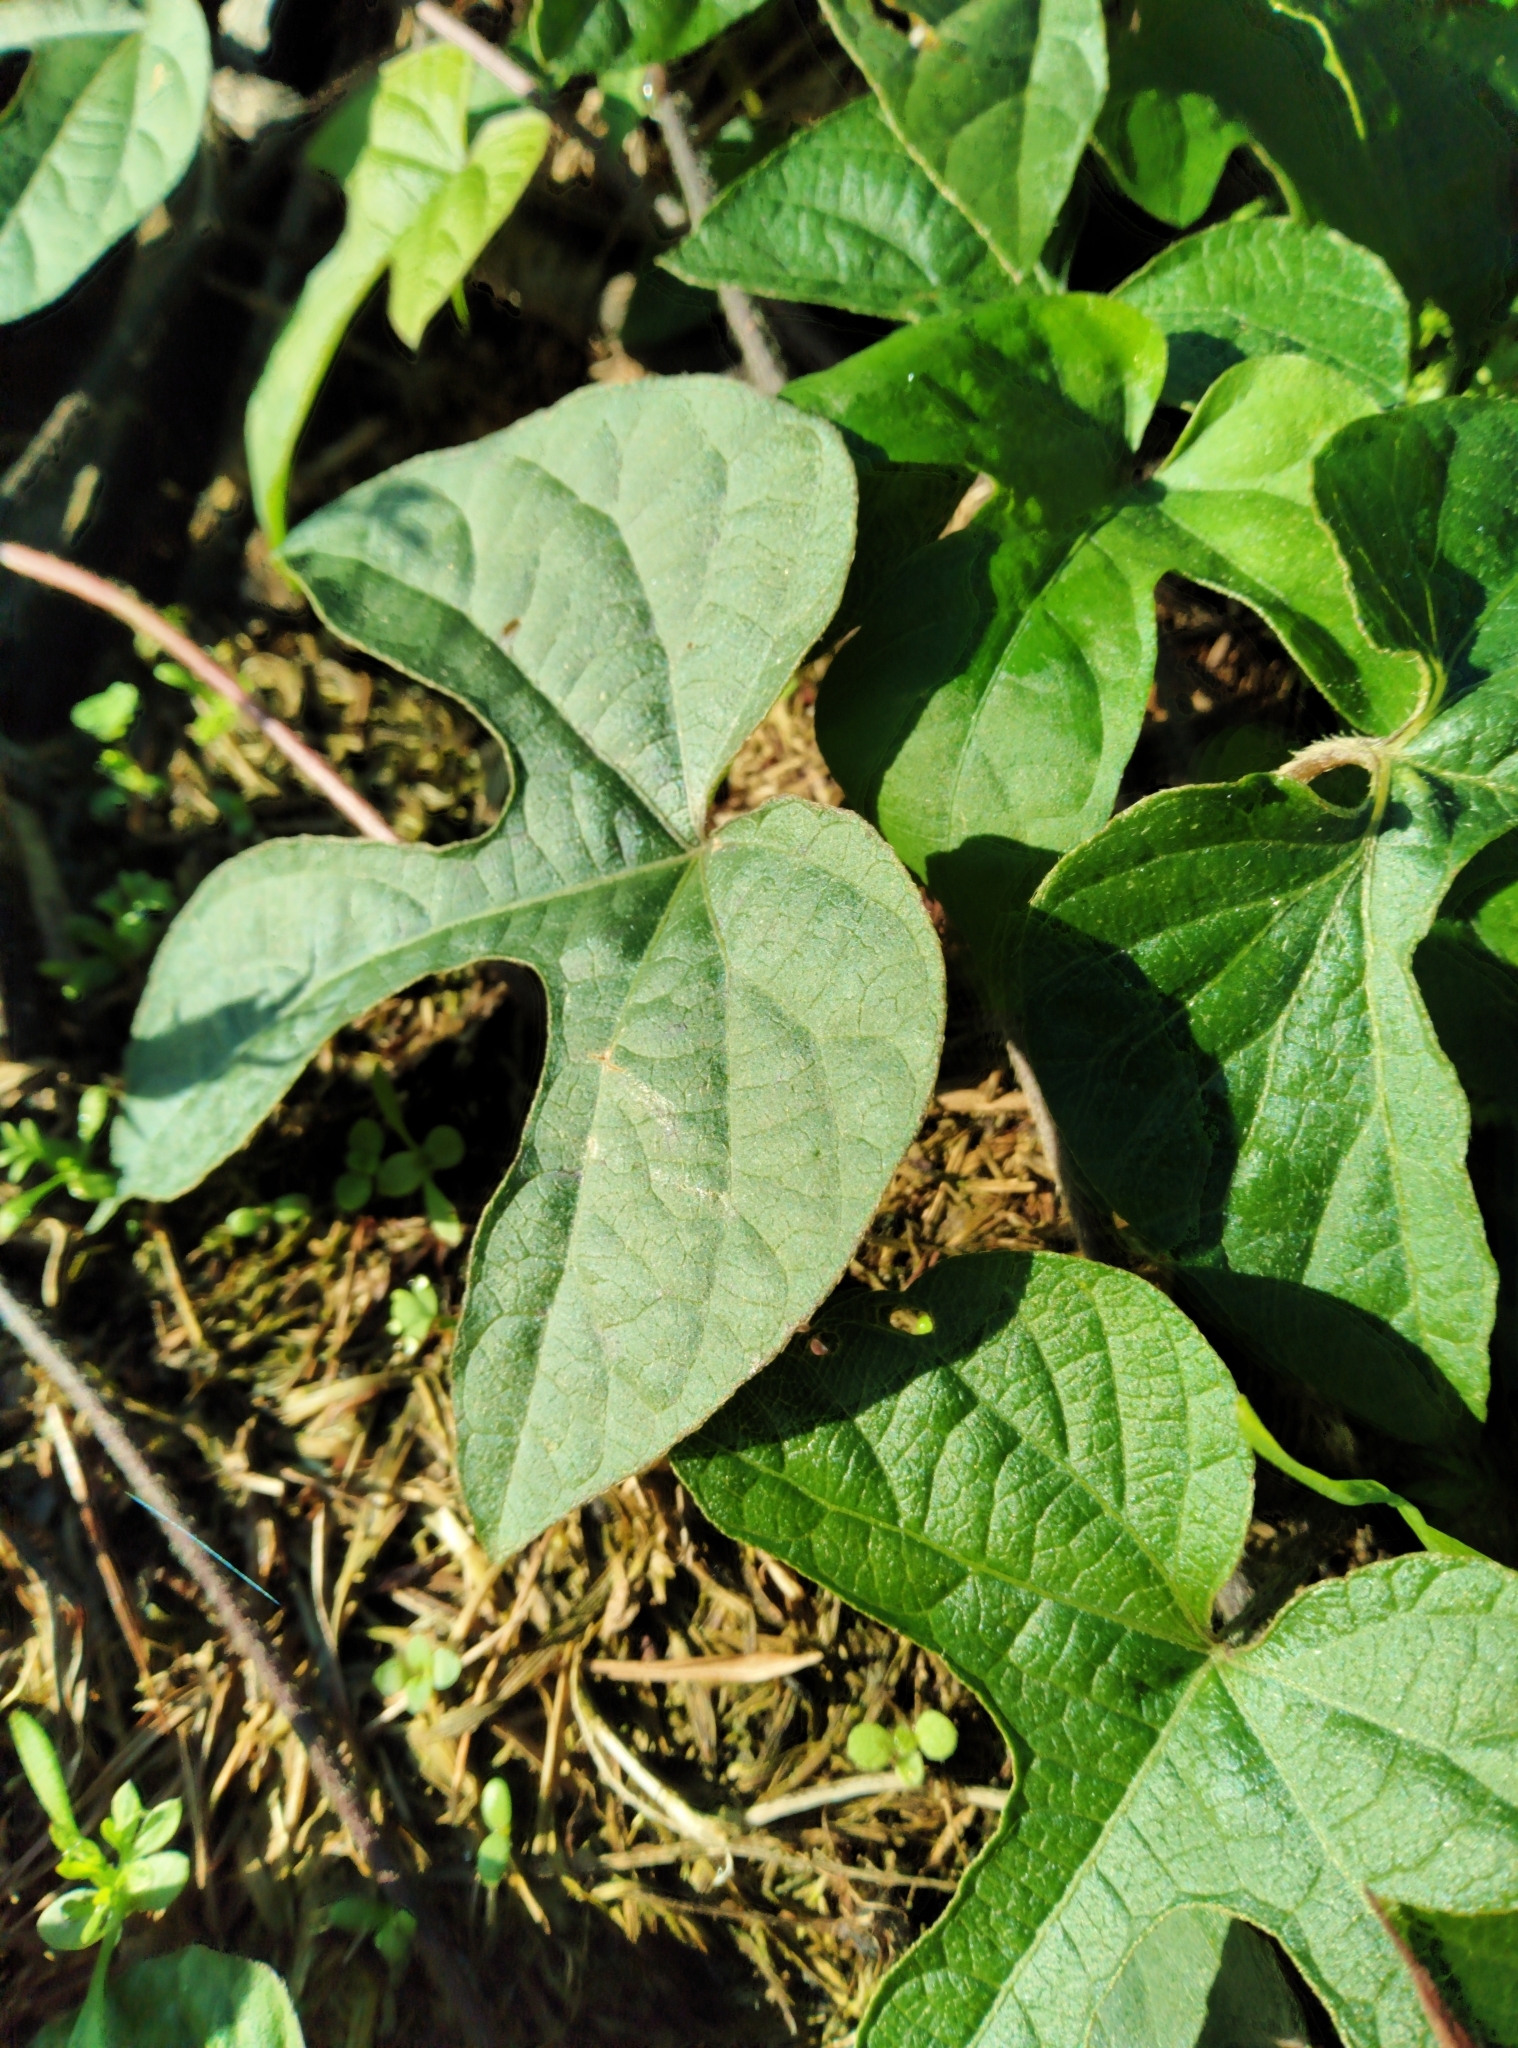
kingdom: Plantae
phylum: Tracheophyta
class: Magnoliopsida
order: Solanales
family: Convolvulaceae
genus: Ipomoea
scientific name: Ipomoea indica
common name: Blue dawnflower
